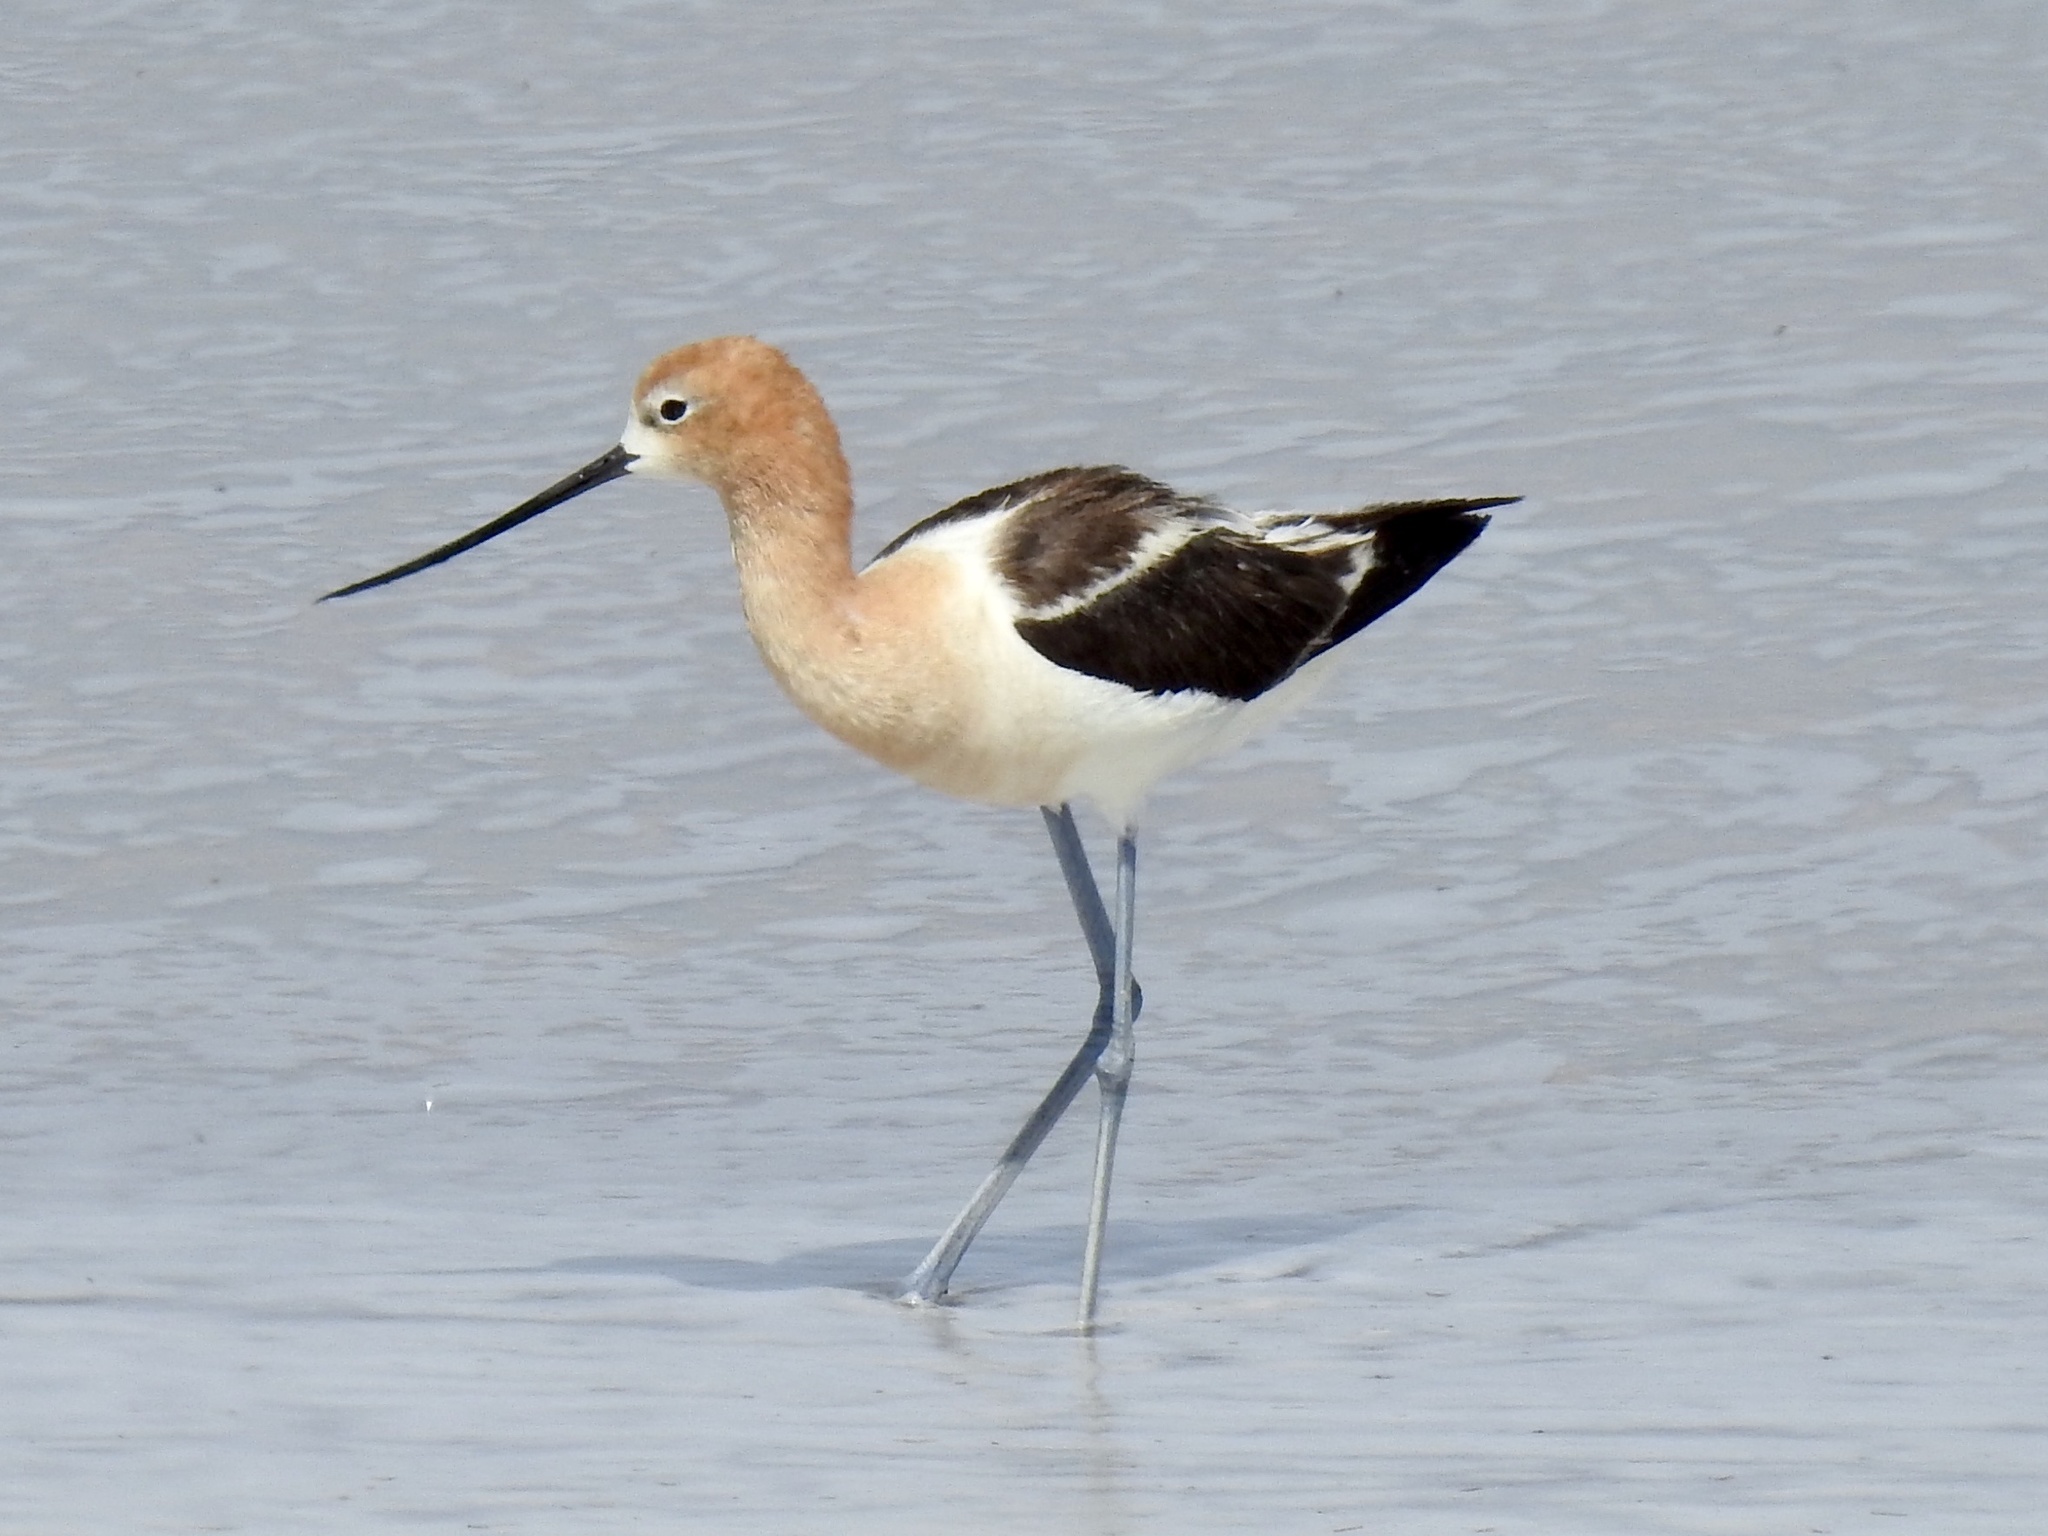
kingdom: Animalia
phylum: Chordata
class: Aves
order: Charadriiformes
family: Recurvirostridae
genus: Recurvirostra
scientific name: Recurvirostra americana
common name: American avocet
